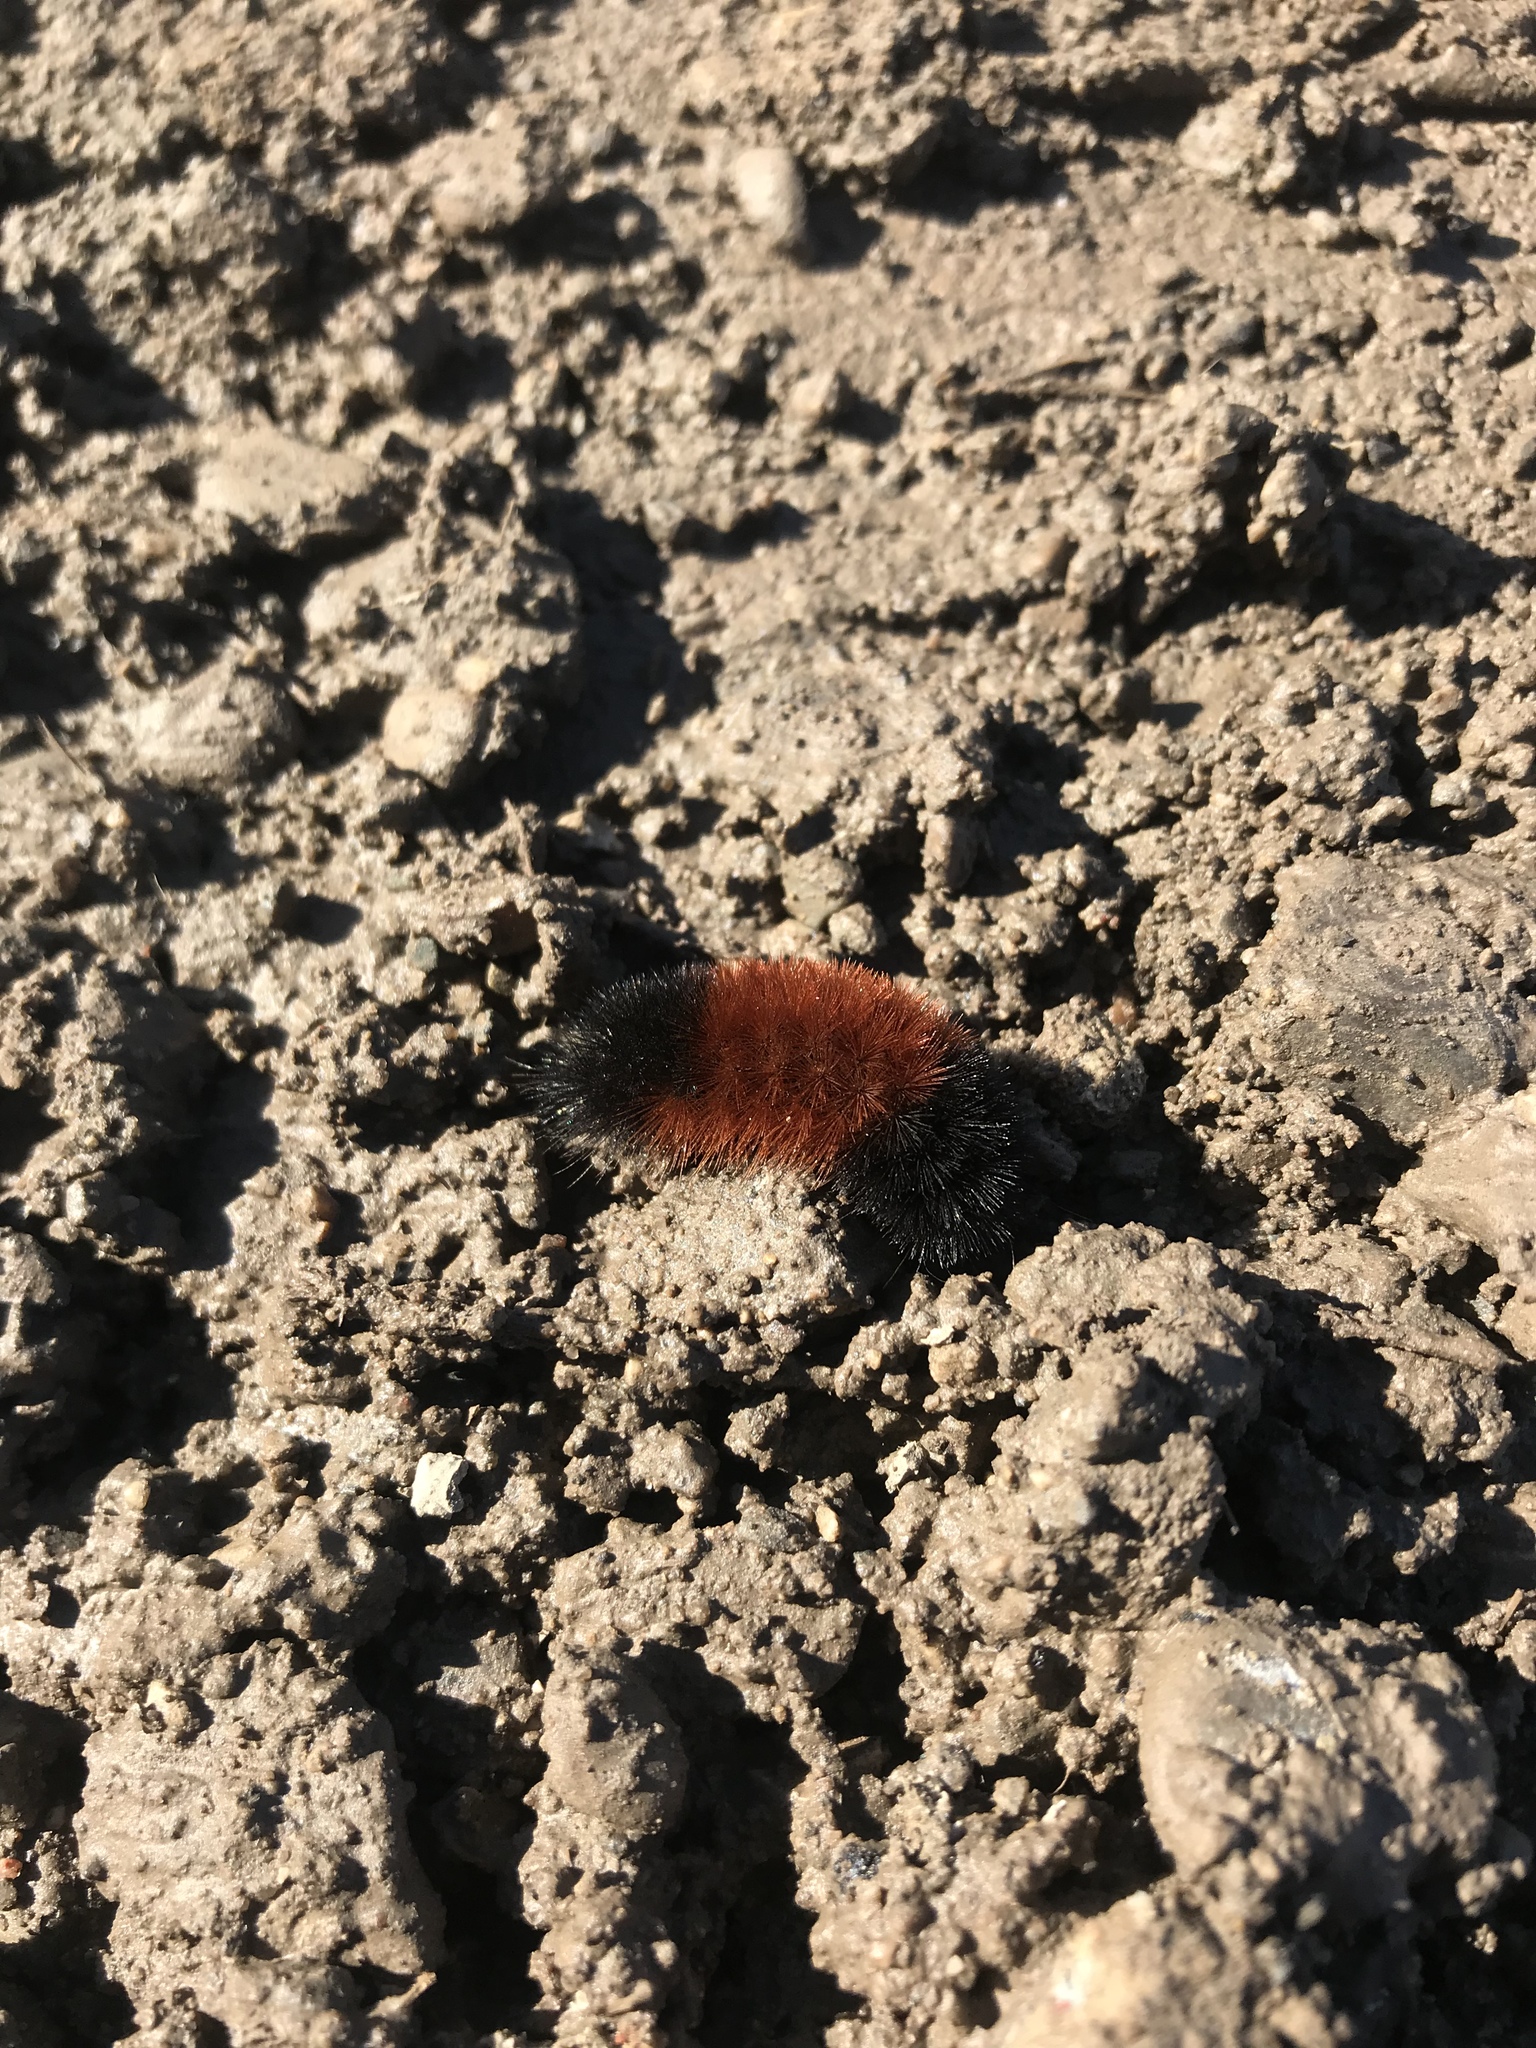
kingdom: Animalia
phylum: Arthropoda
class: Insecta
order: Lepidoptera
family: Erebidae
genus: Pyrrharctia
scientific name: Pyrrharctia isabella
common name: Isabella tiger moth
